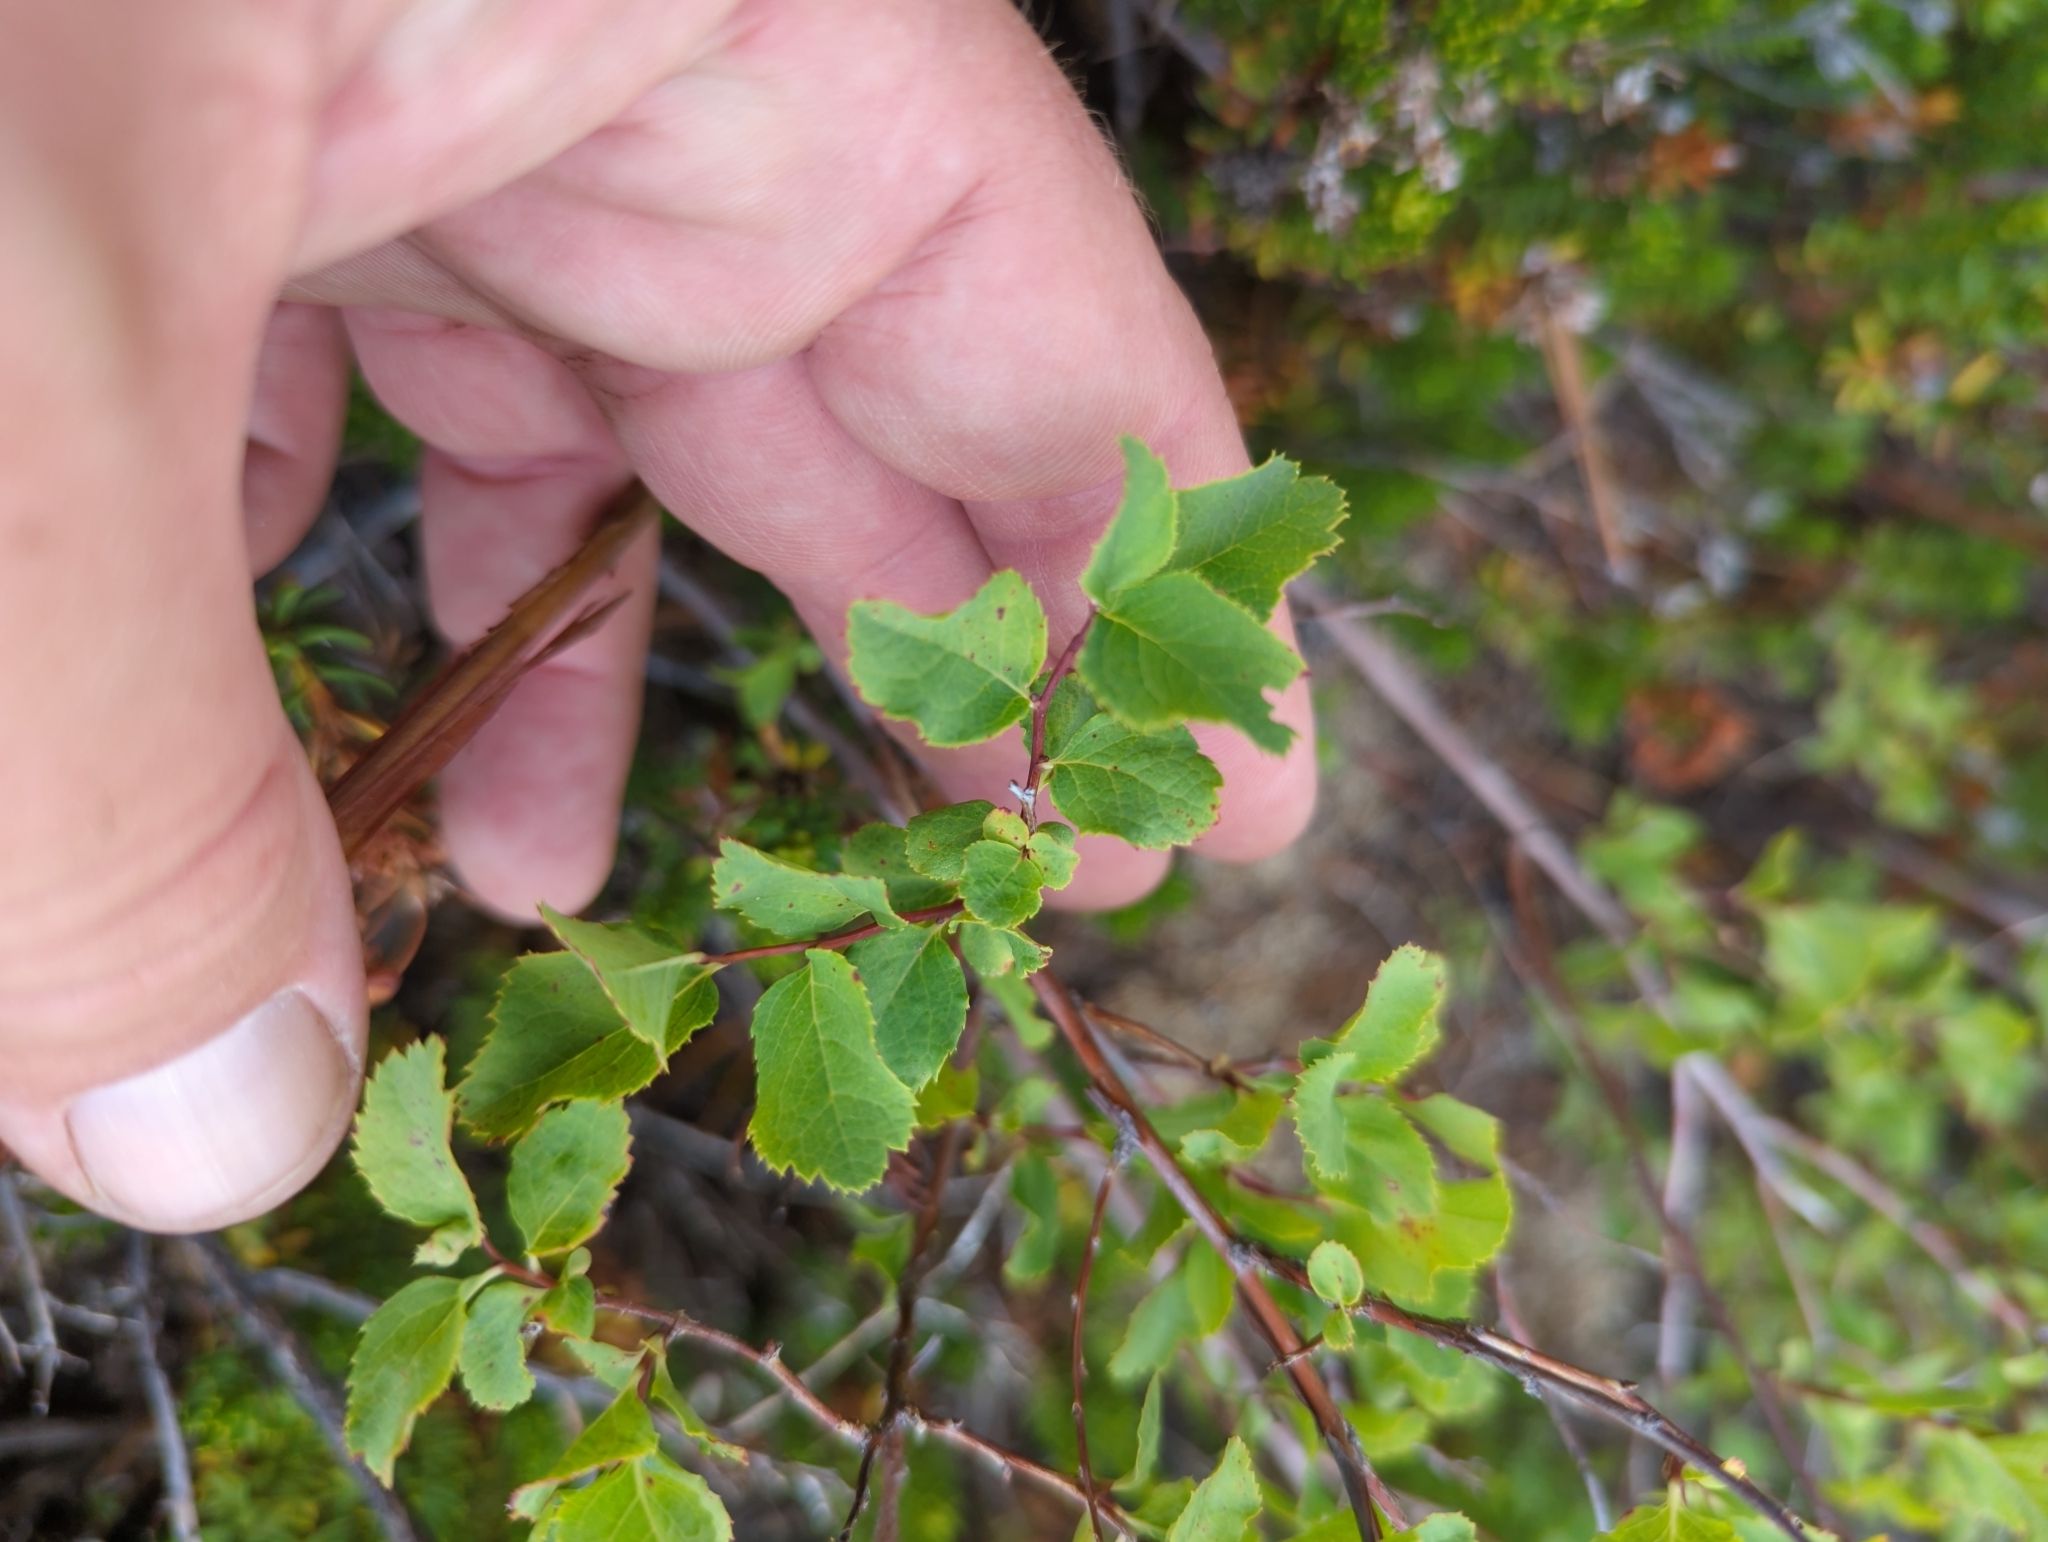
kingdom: Plantae
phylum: Tracheophyta
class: Magnoliopsida
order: Rosales
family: Rosaceae
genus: Spiraea
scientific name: Spiraea splendens
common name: Subalpine meadowsweet
